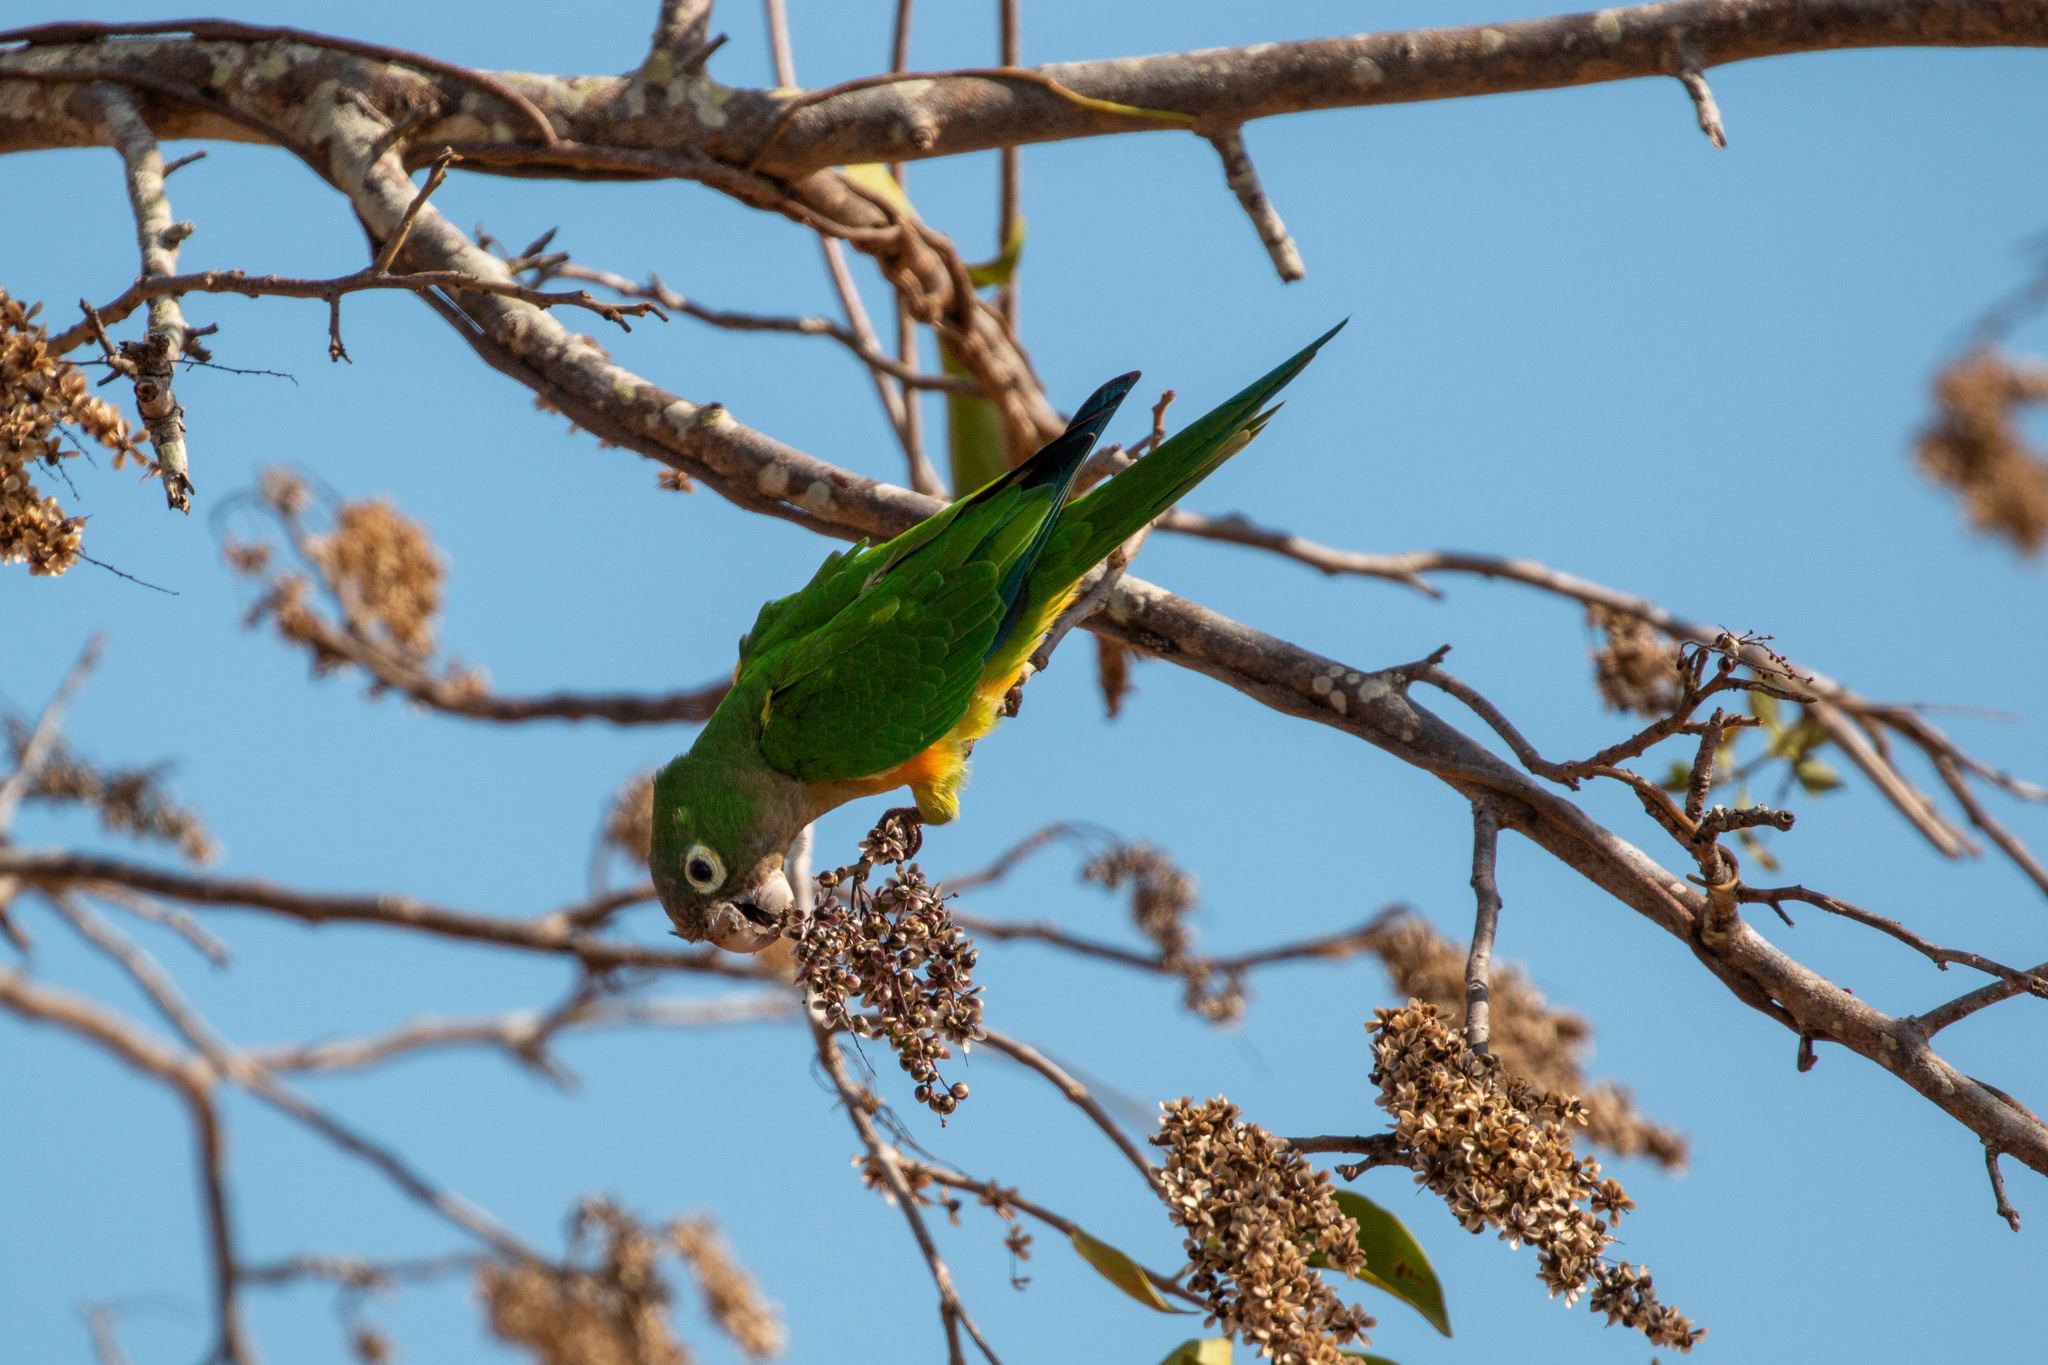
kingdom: Plantae
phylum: Tracheophyta
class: Magnoliopsida
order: Sapindales
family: Anacardiaceae
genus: Myracrodruon
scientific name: Myracrodruon urundeuva
